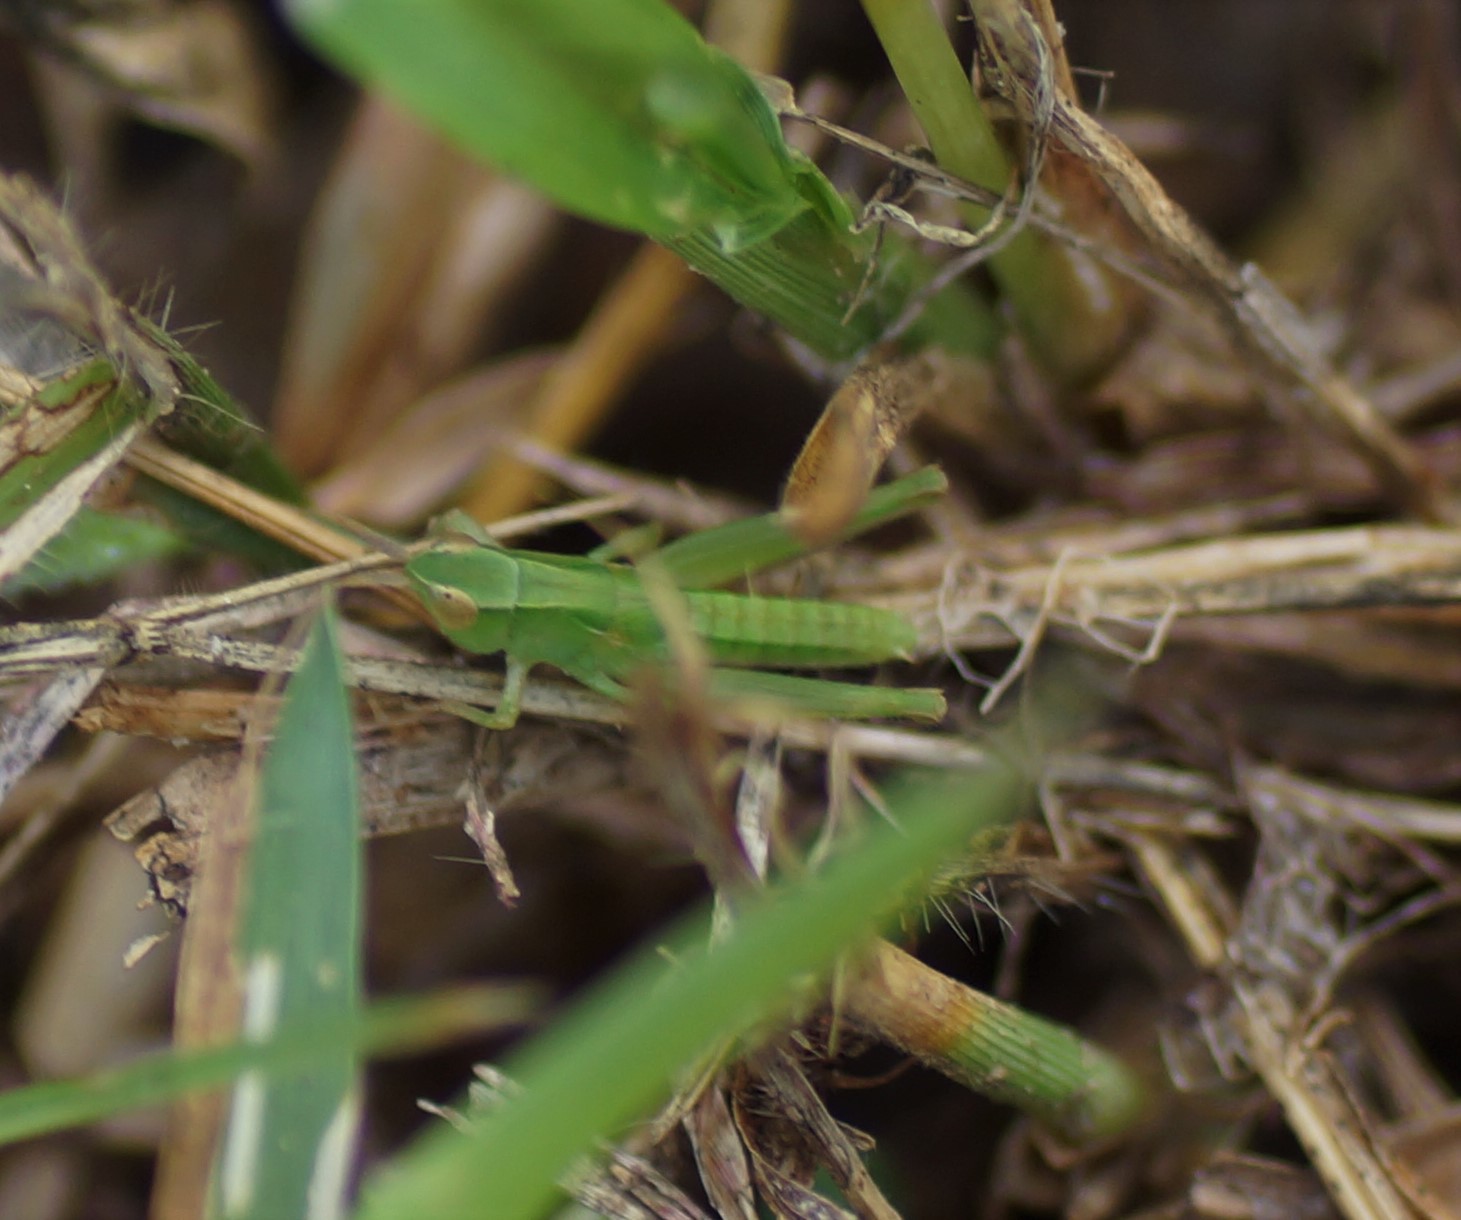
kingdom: Animalia
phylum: Arthropoda
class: Insecta
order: Orthoptera
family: Acrididae
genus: Froggattina
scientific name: Froggattina australis
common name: Froggatt's buzzer
